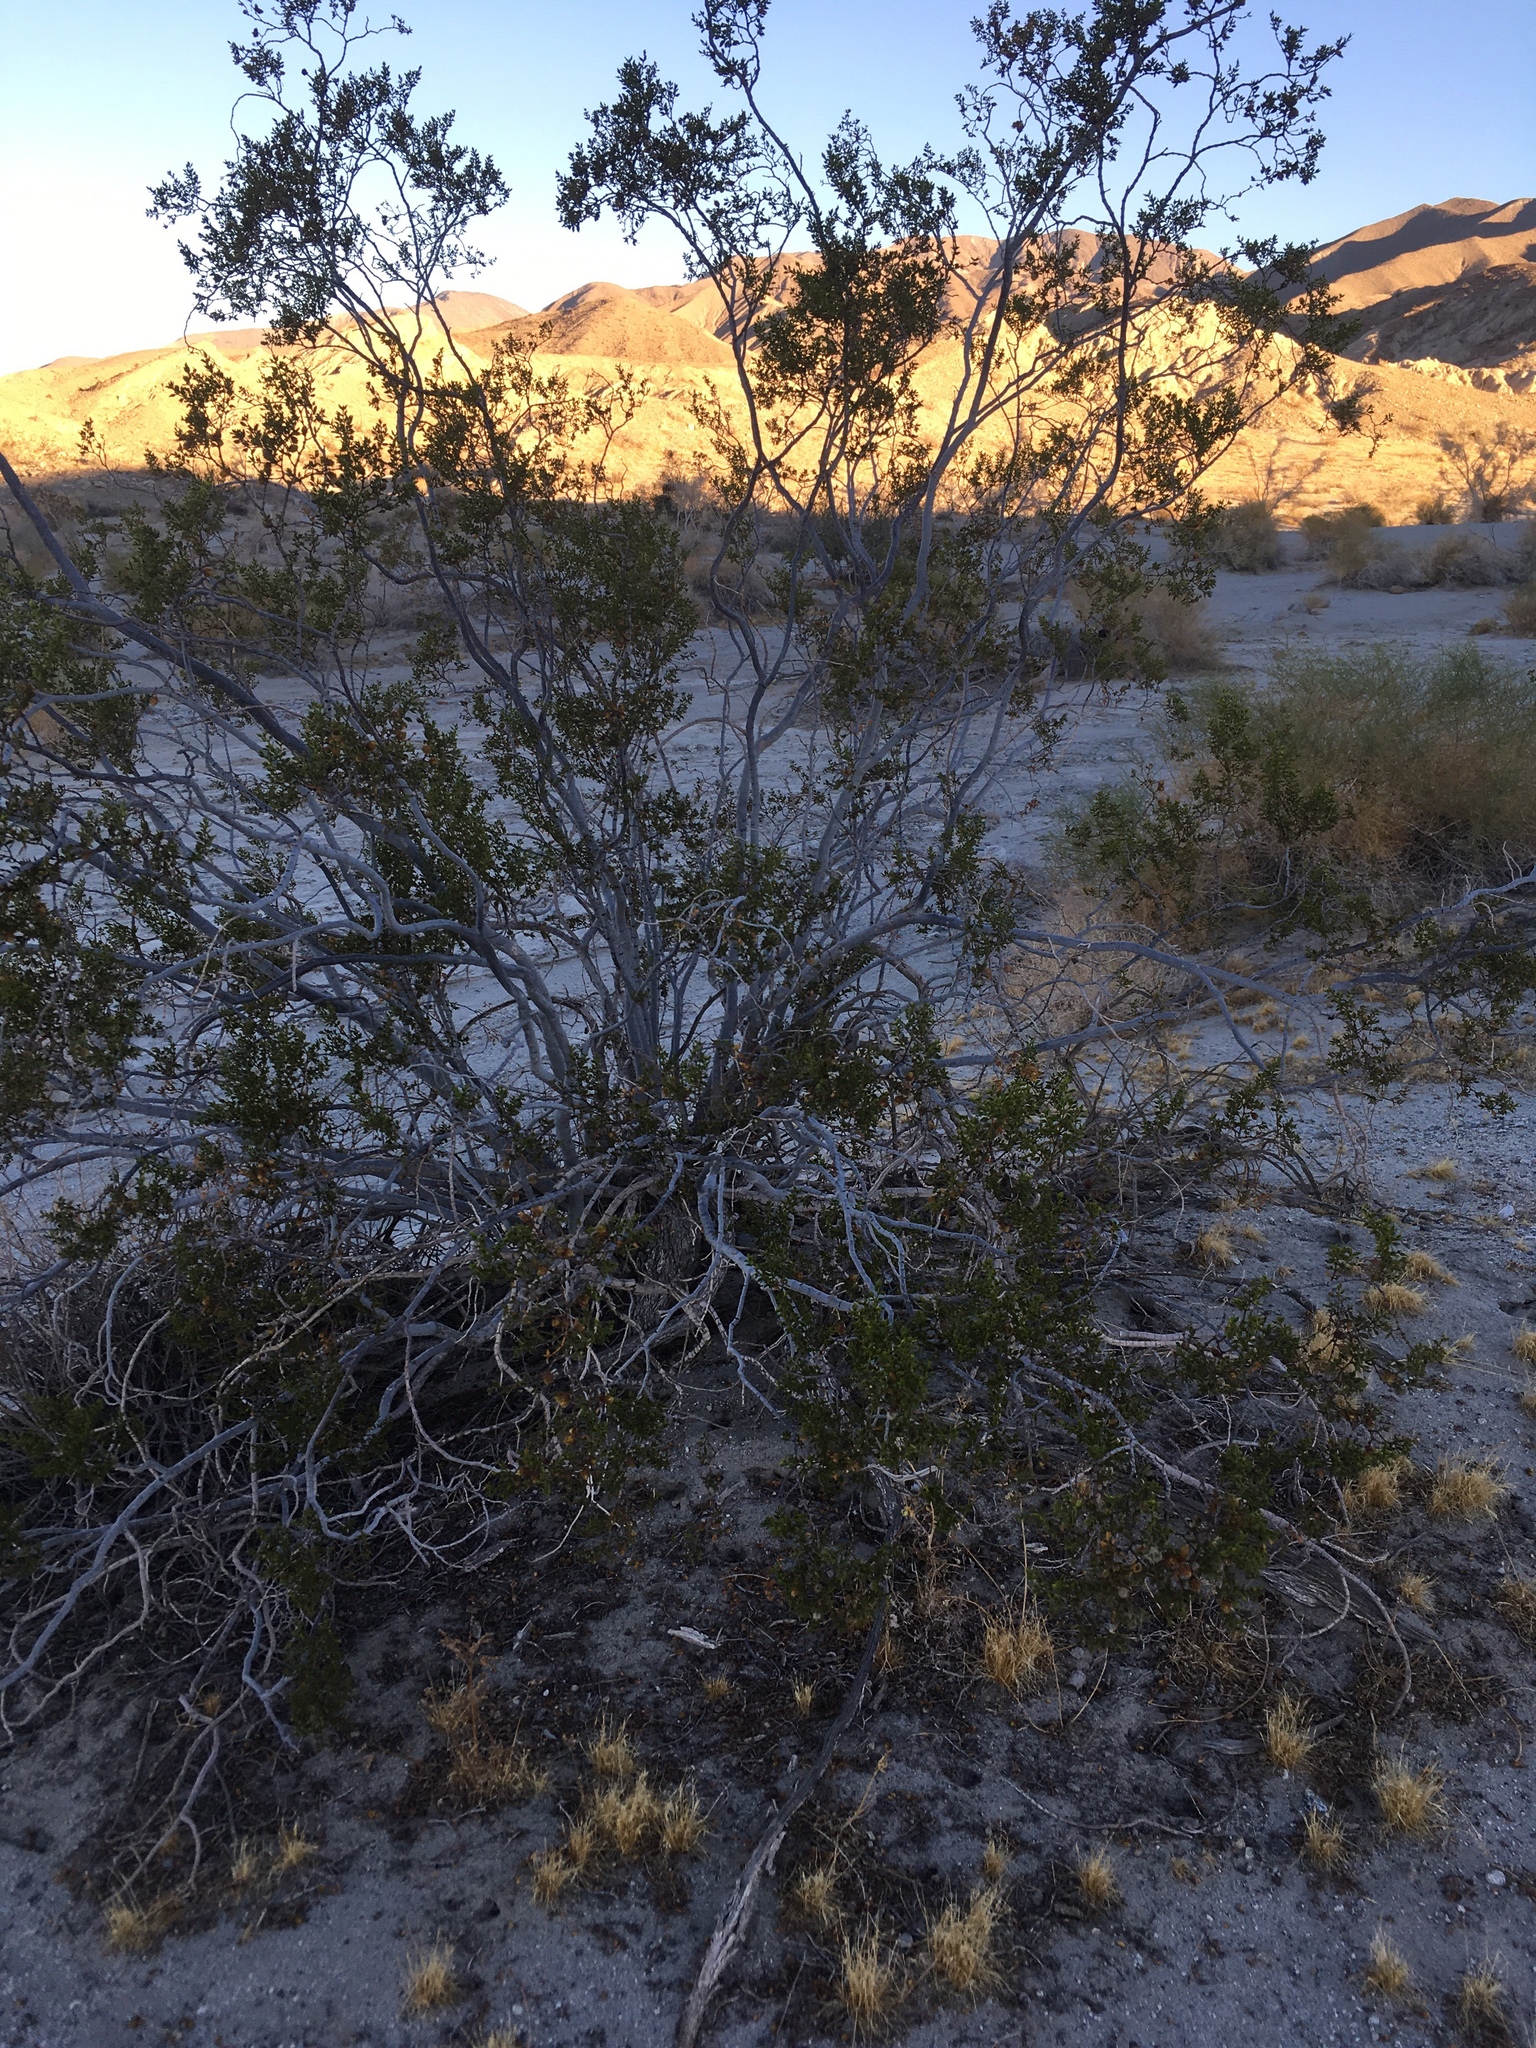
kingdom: Plantae
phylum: Tracheophyta
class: Magnoliopsida
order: Zygophyllales
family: Zygophyllaceae
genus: Larrea
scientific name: Larrea tridentata
